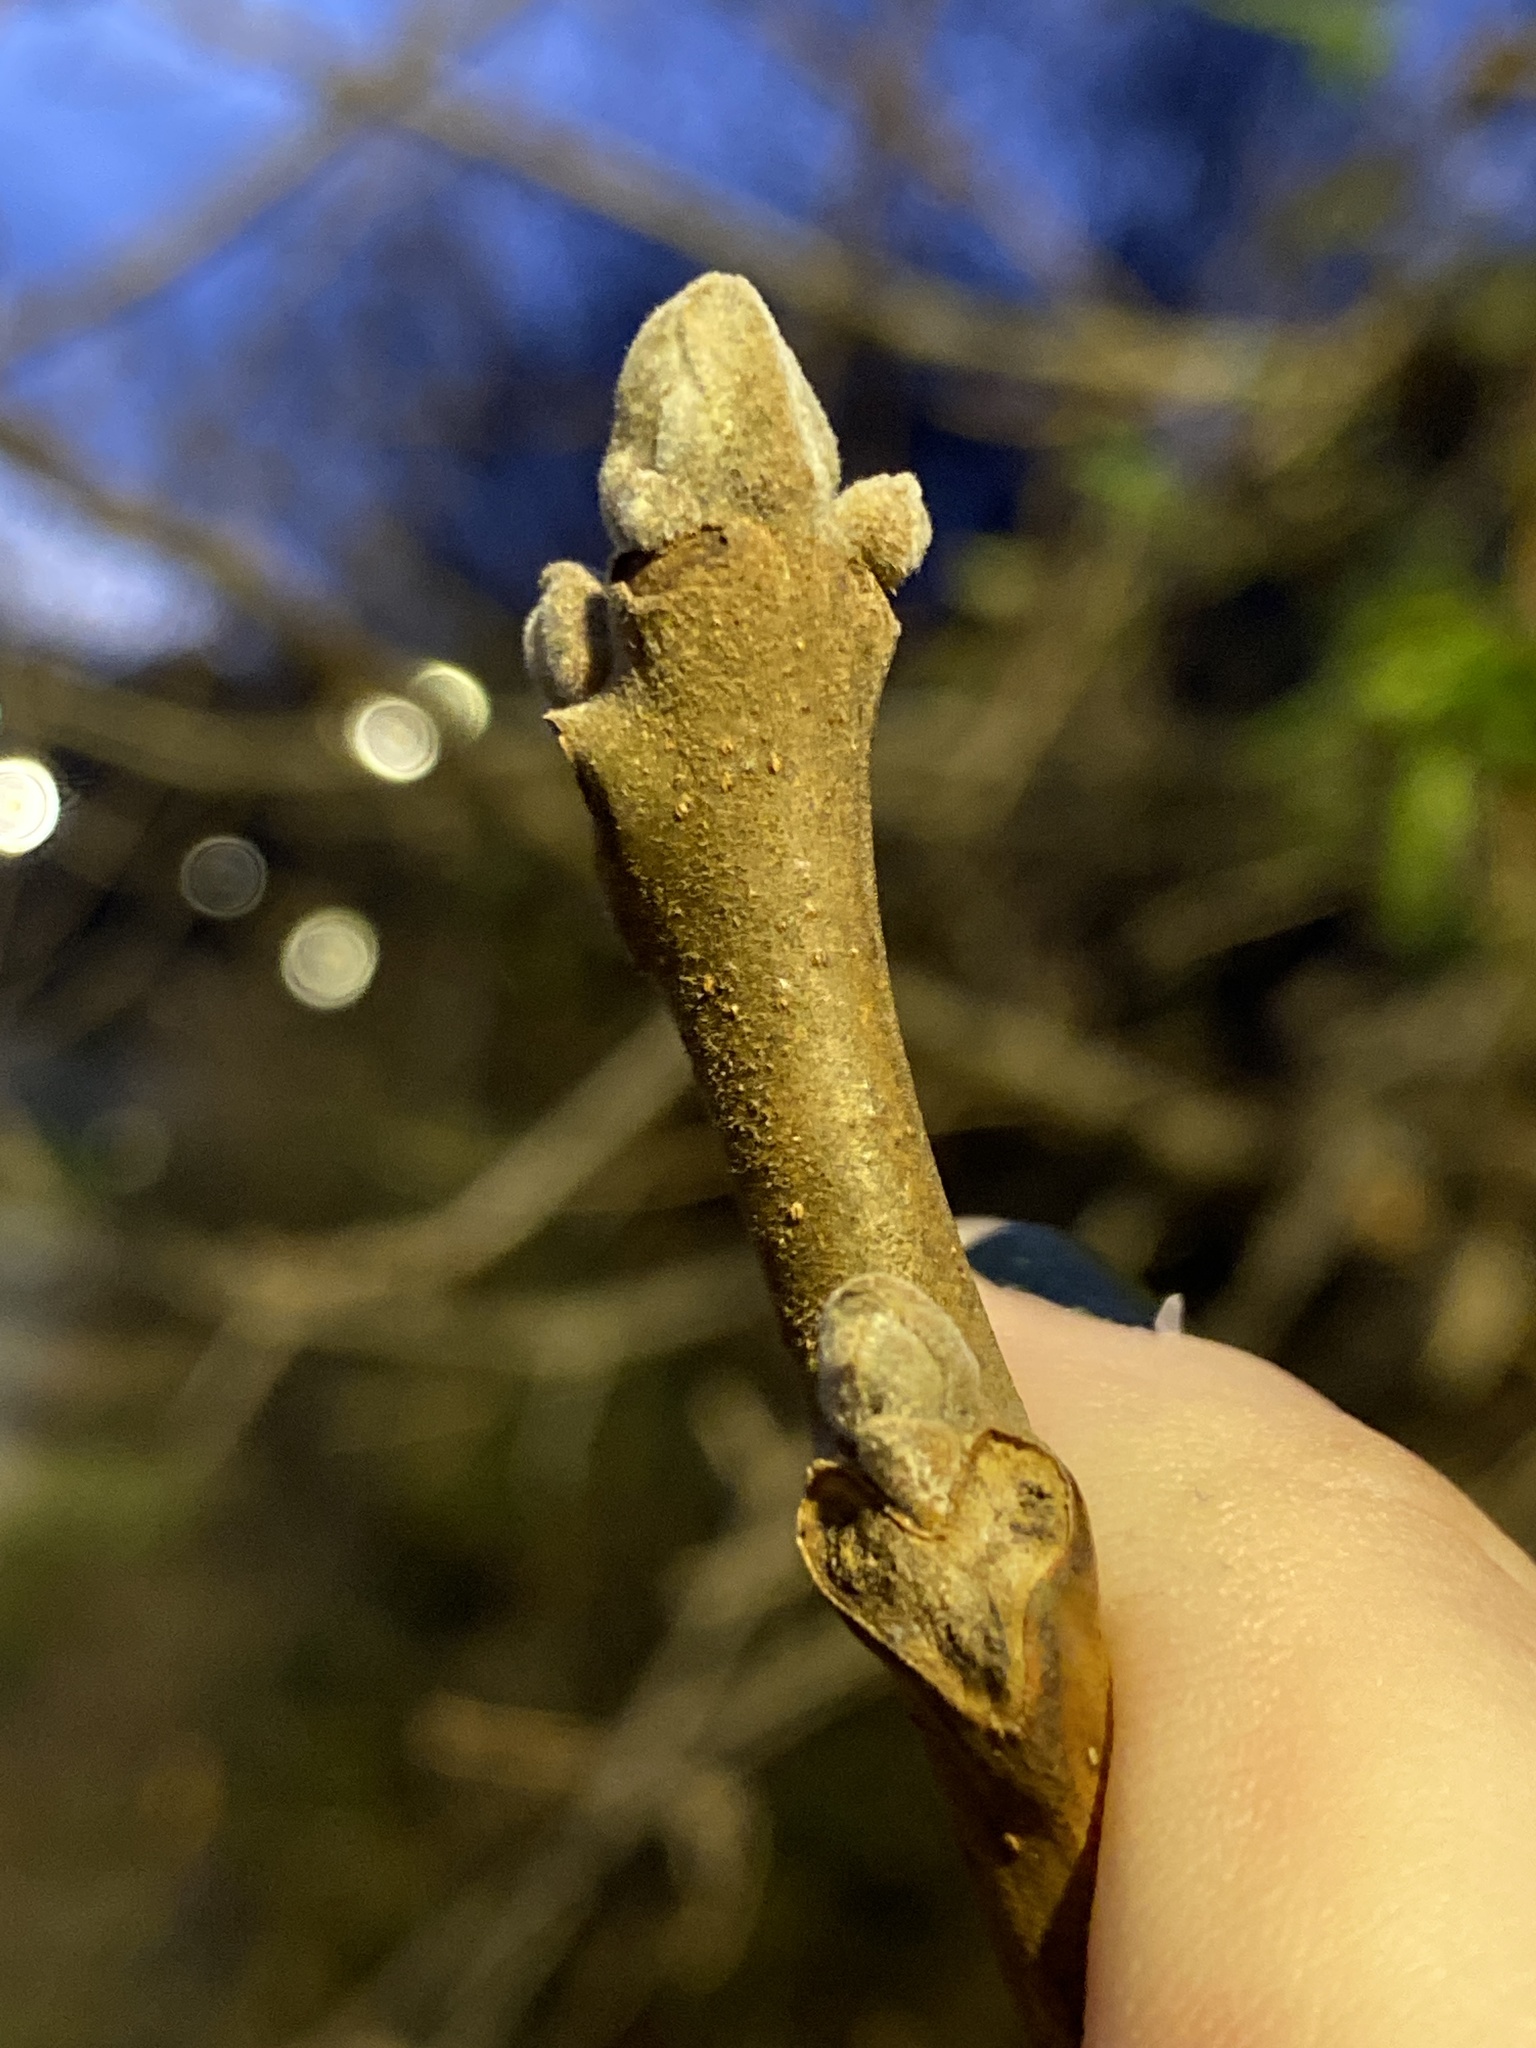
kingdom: Plantae
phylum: Tracheophyta
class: Magnoliopsida
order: Fagales
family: Juglandaceae
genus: Juglans
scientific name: Juglans nigra
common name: Black walnut
